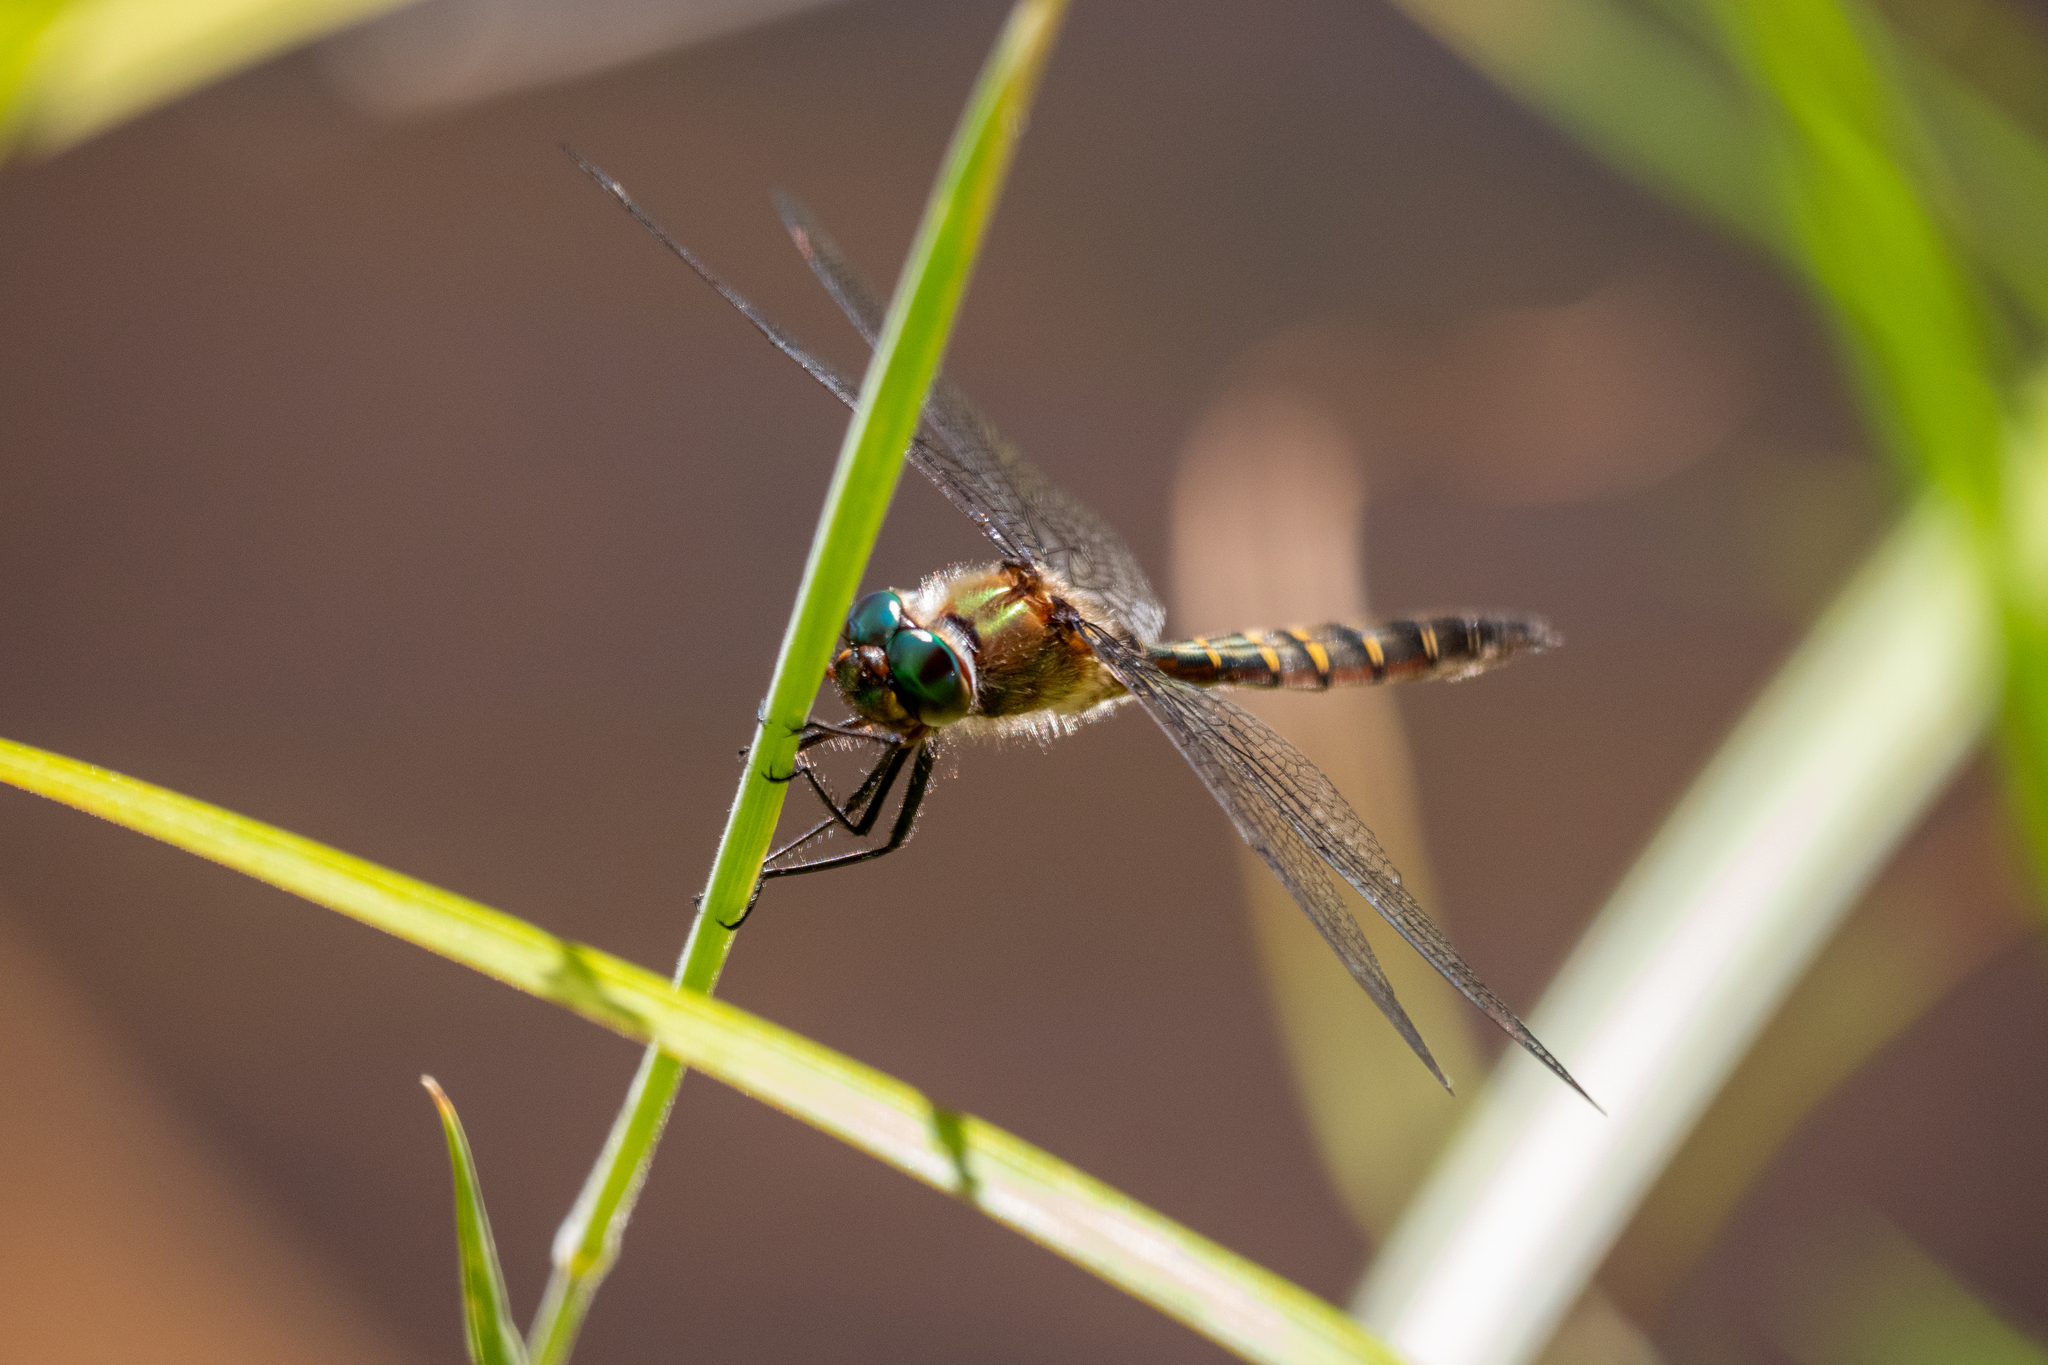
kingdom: Animalia
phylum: Arthropoda
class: Insecta
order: Odonata
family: Corduliidae
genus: Procordulia
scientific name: Procordulia smithii
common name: Ranger dragonfly
